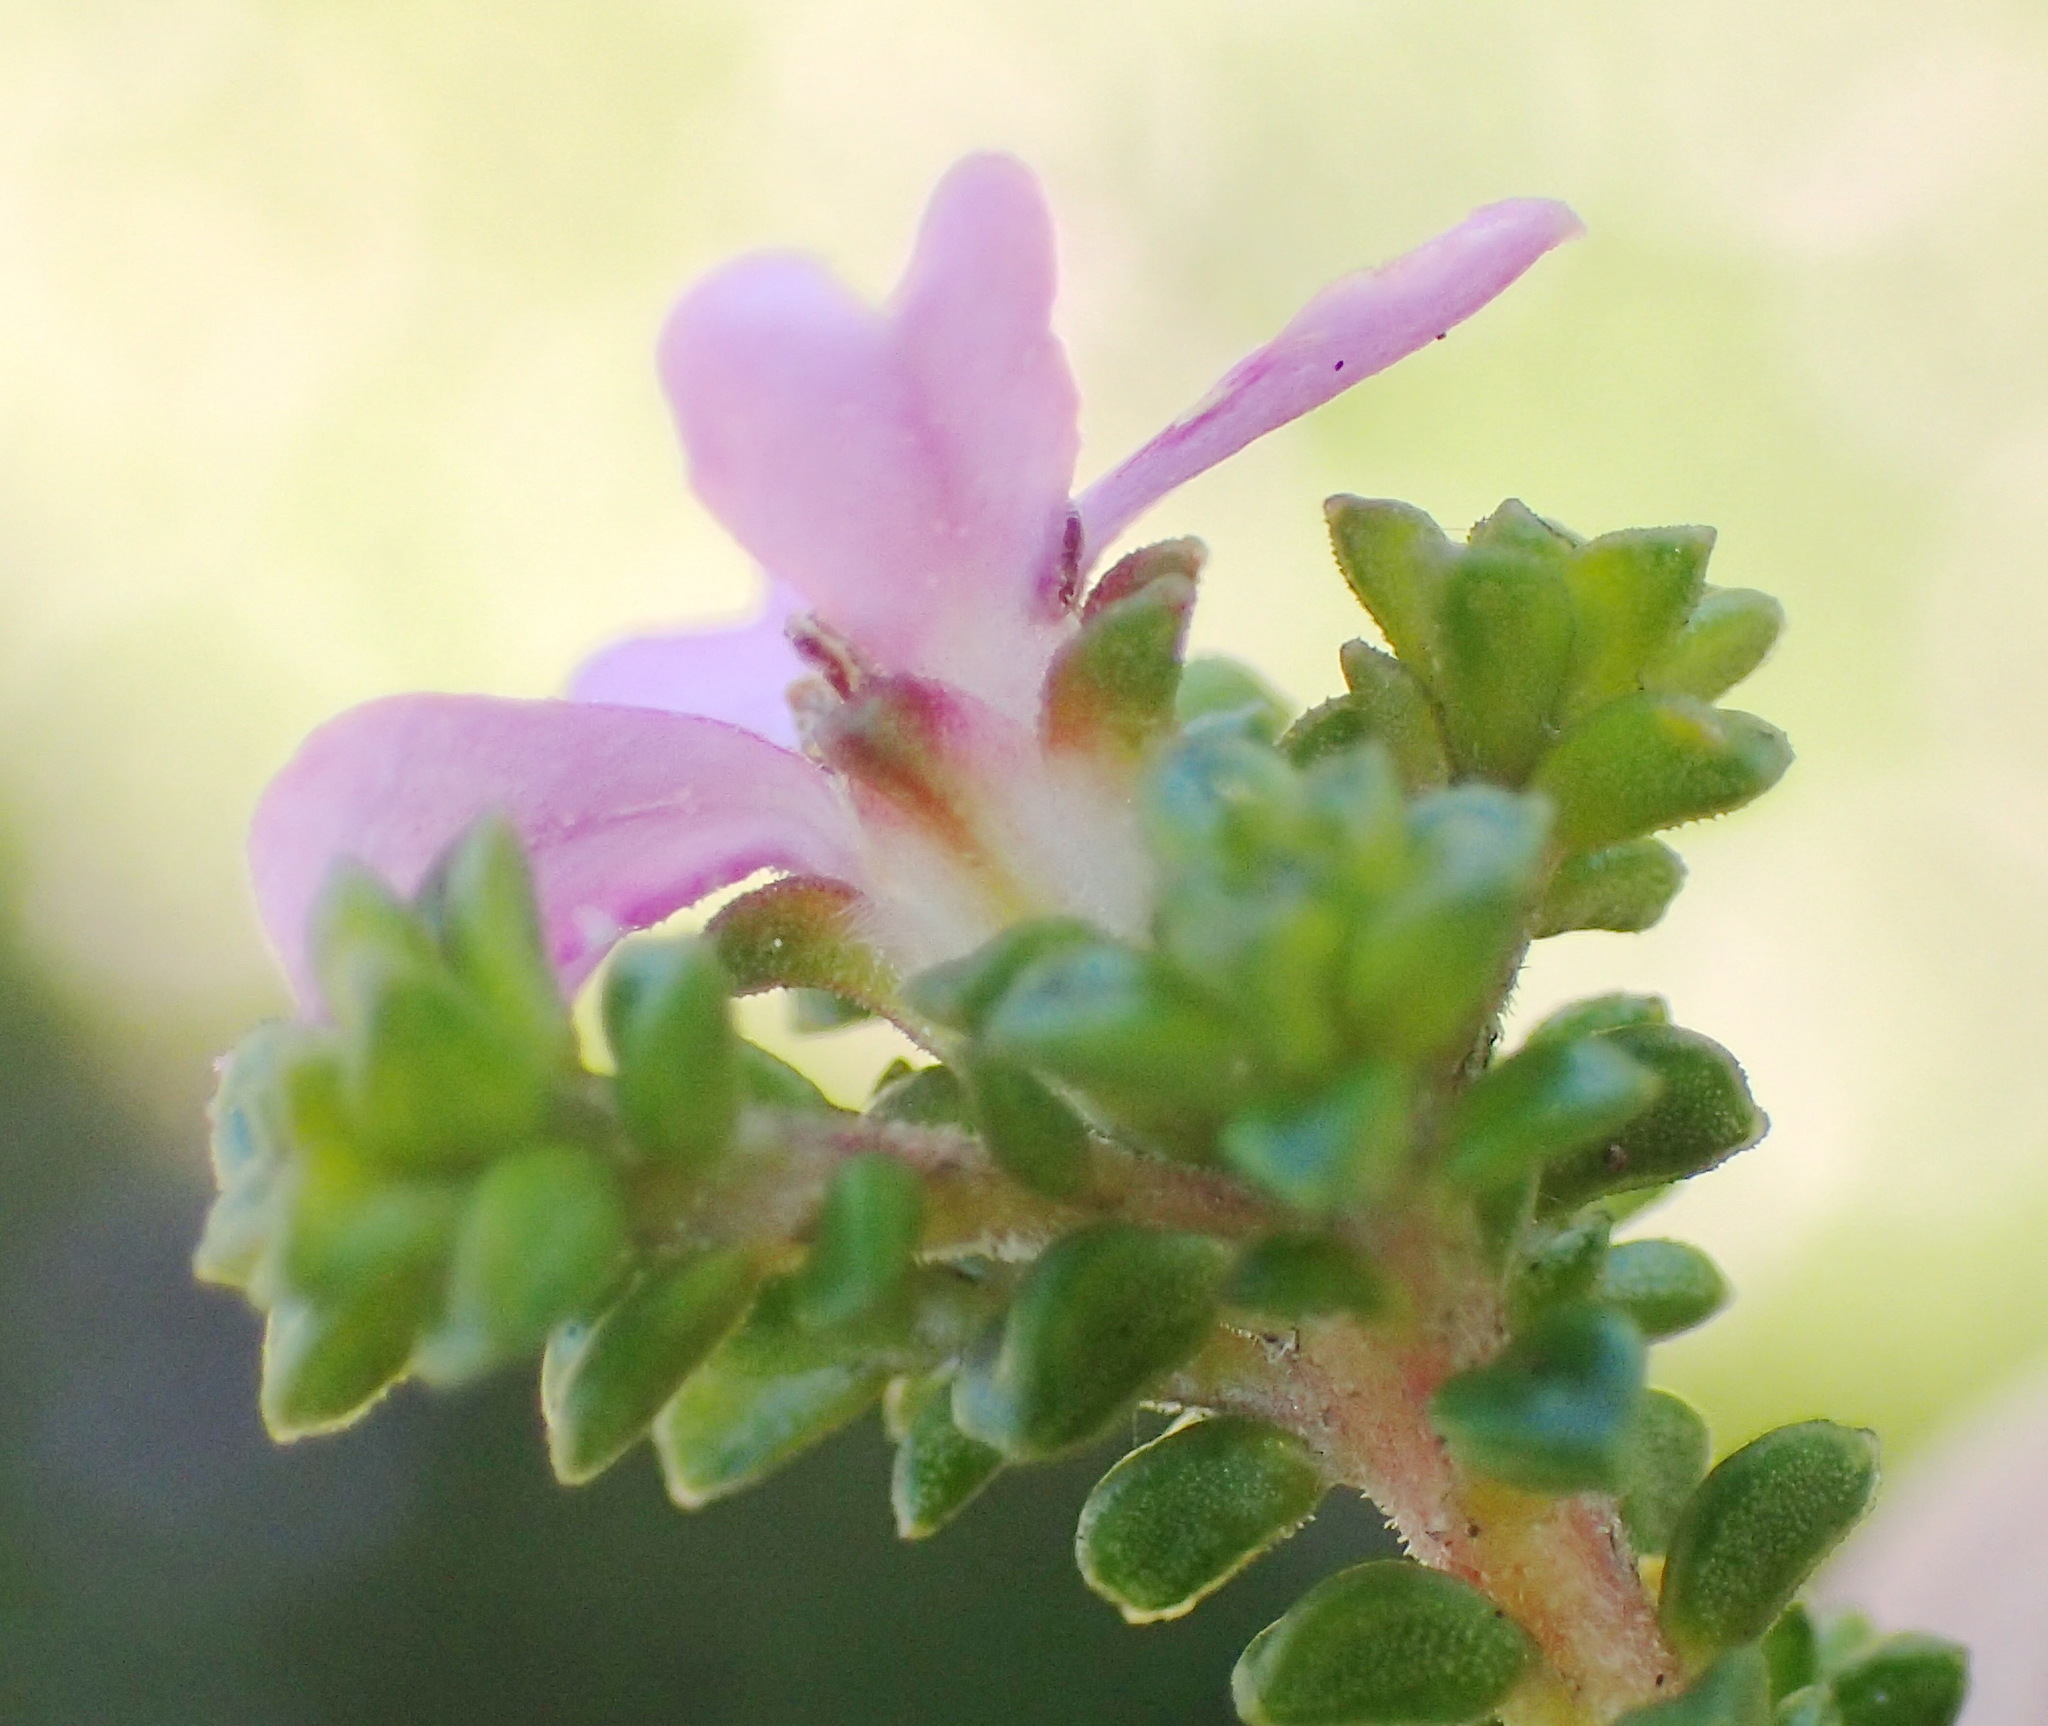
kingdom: Plantae
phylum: Tracheophyta
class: Magnoliopsida
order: Sapindales
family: Rutaceae
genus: Acmadenia
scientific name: Acmadenia heterophylla
